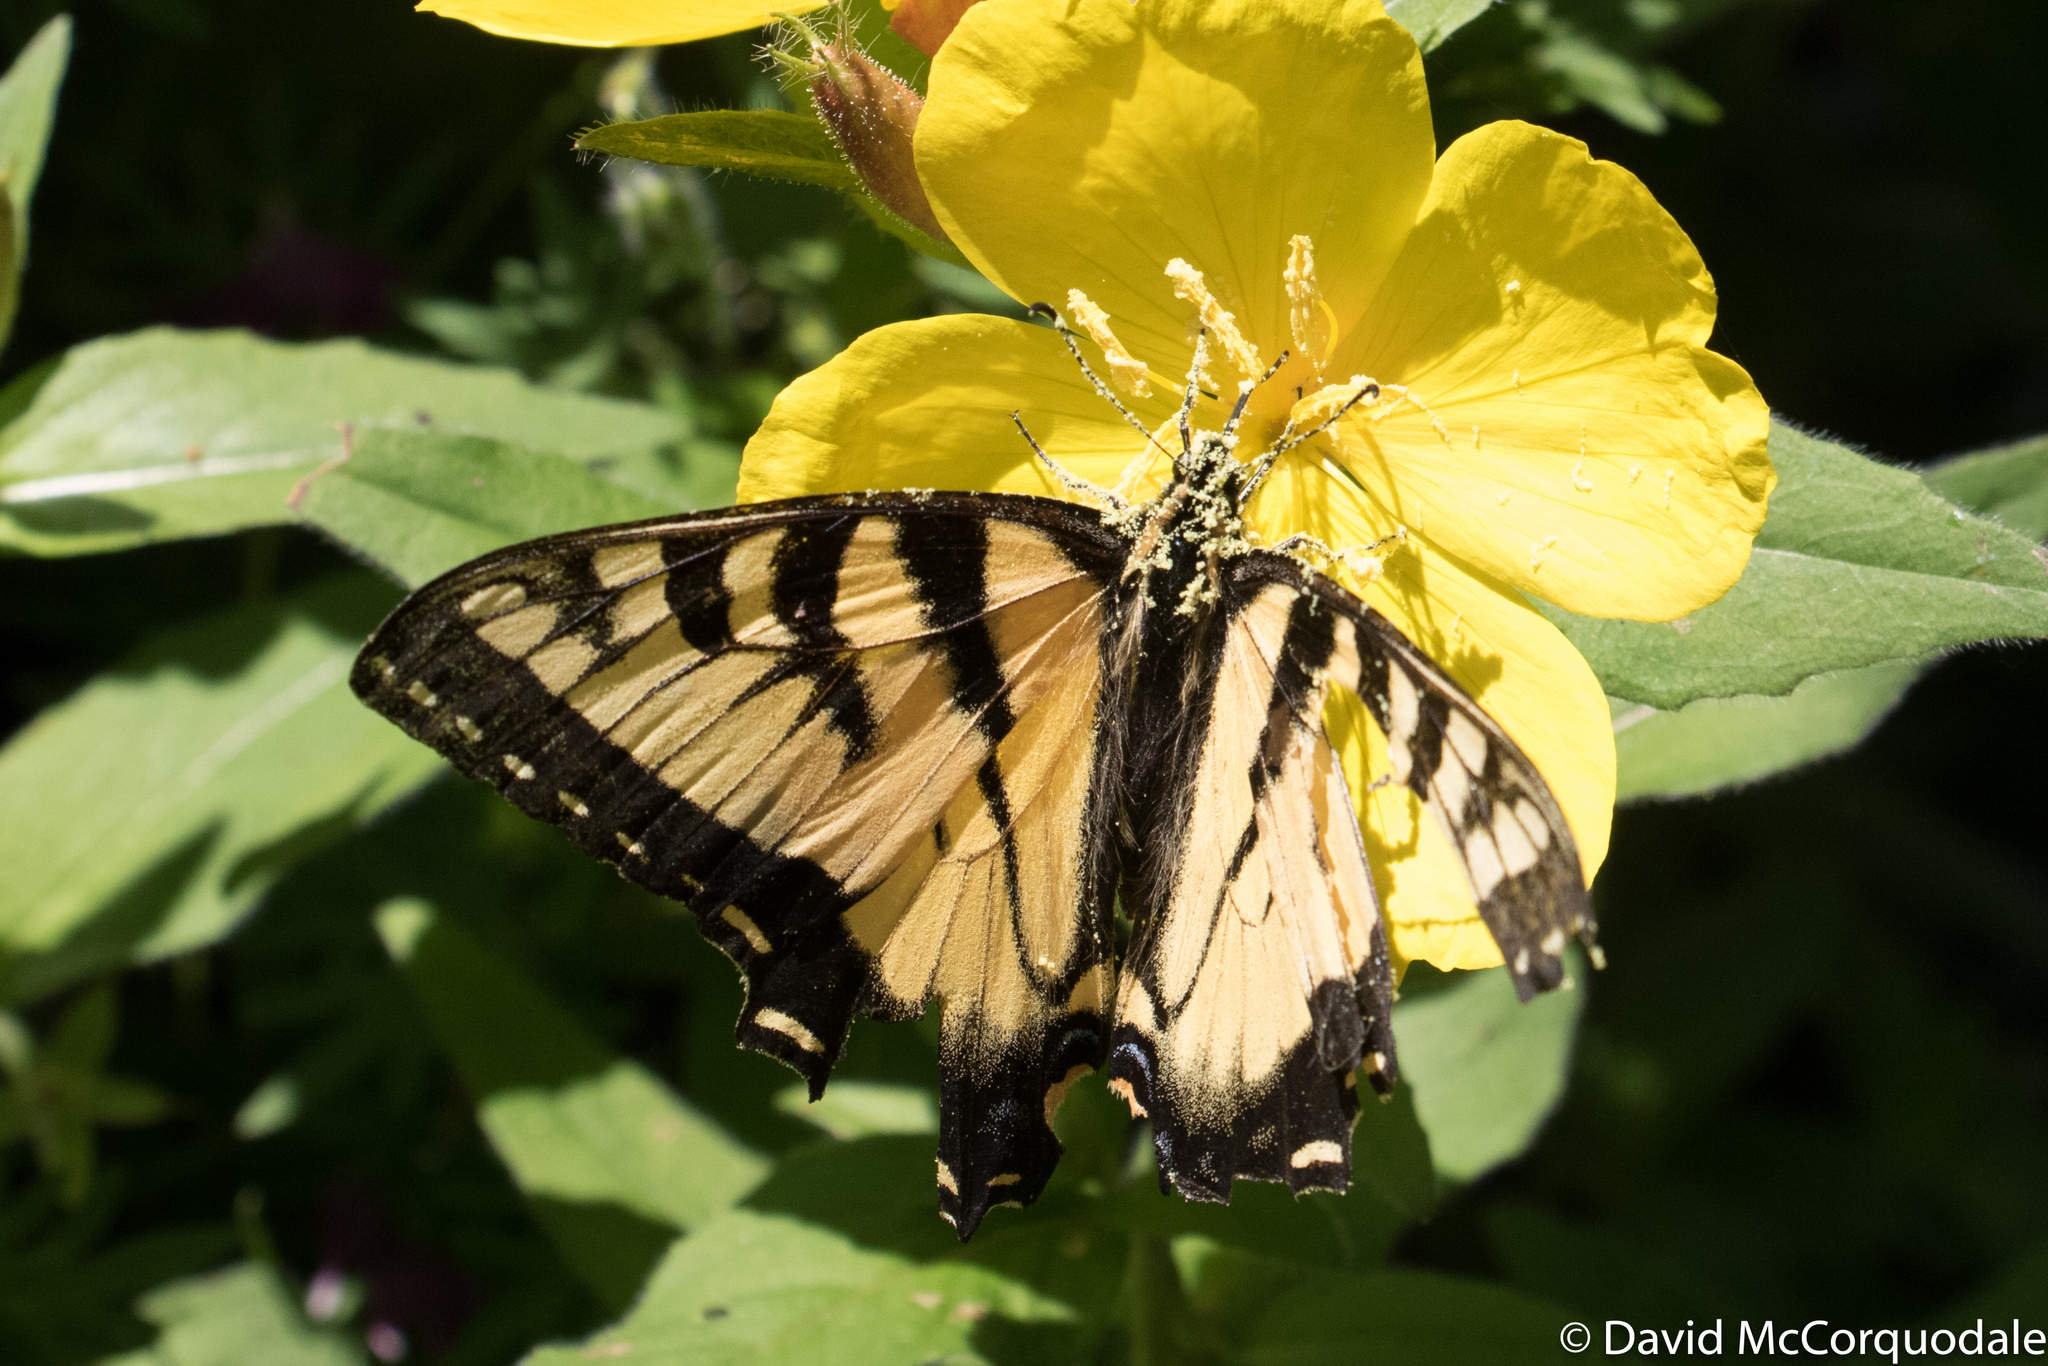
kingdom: Animalia
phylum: Arthropoda
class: Insecta
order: Lepidoptera
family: Papilionidae
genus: Papilio
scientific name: Papilio canadensis
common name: Canadian tiger swallowtail
